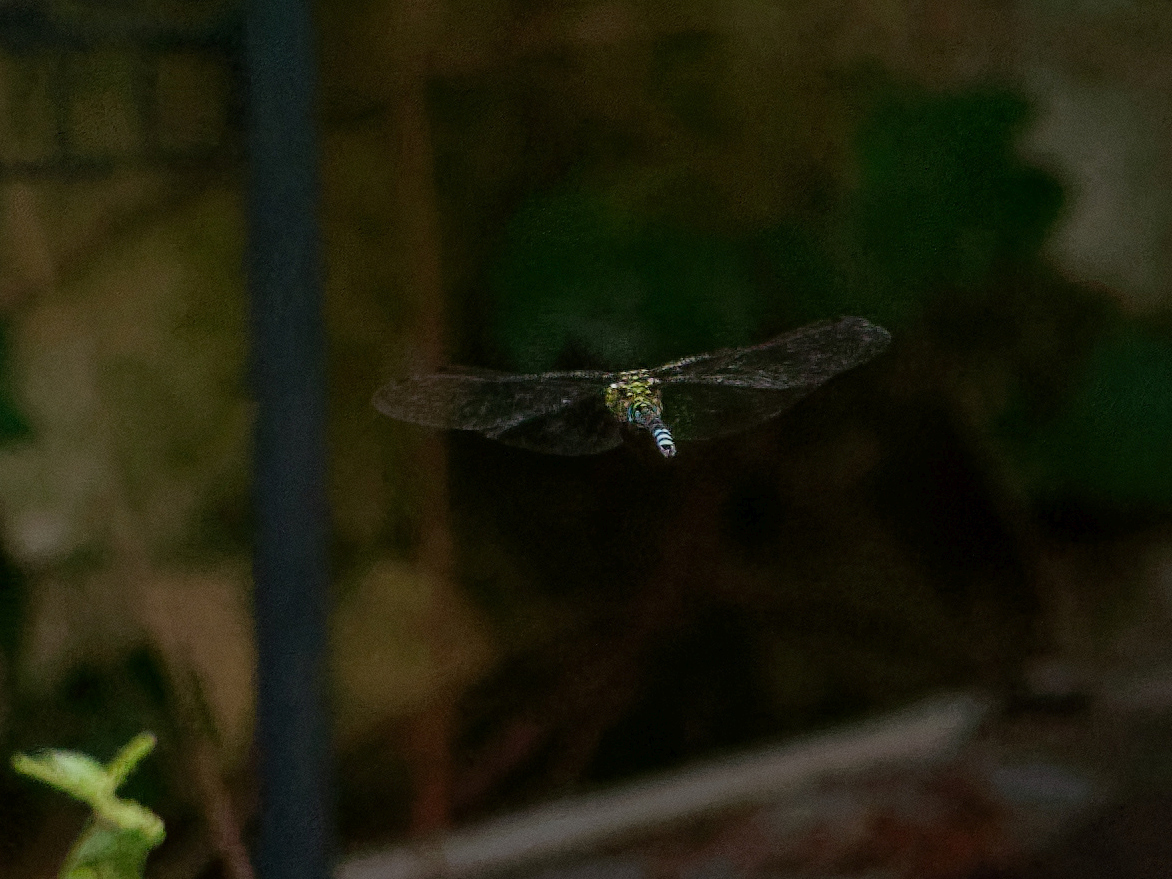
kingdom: Animalia
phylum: Arthropoda
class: Insecta
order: Odonata
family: Aeshnidae
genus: Aeshna
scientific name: Aeshna cyanea
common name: Southern hawker
